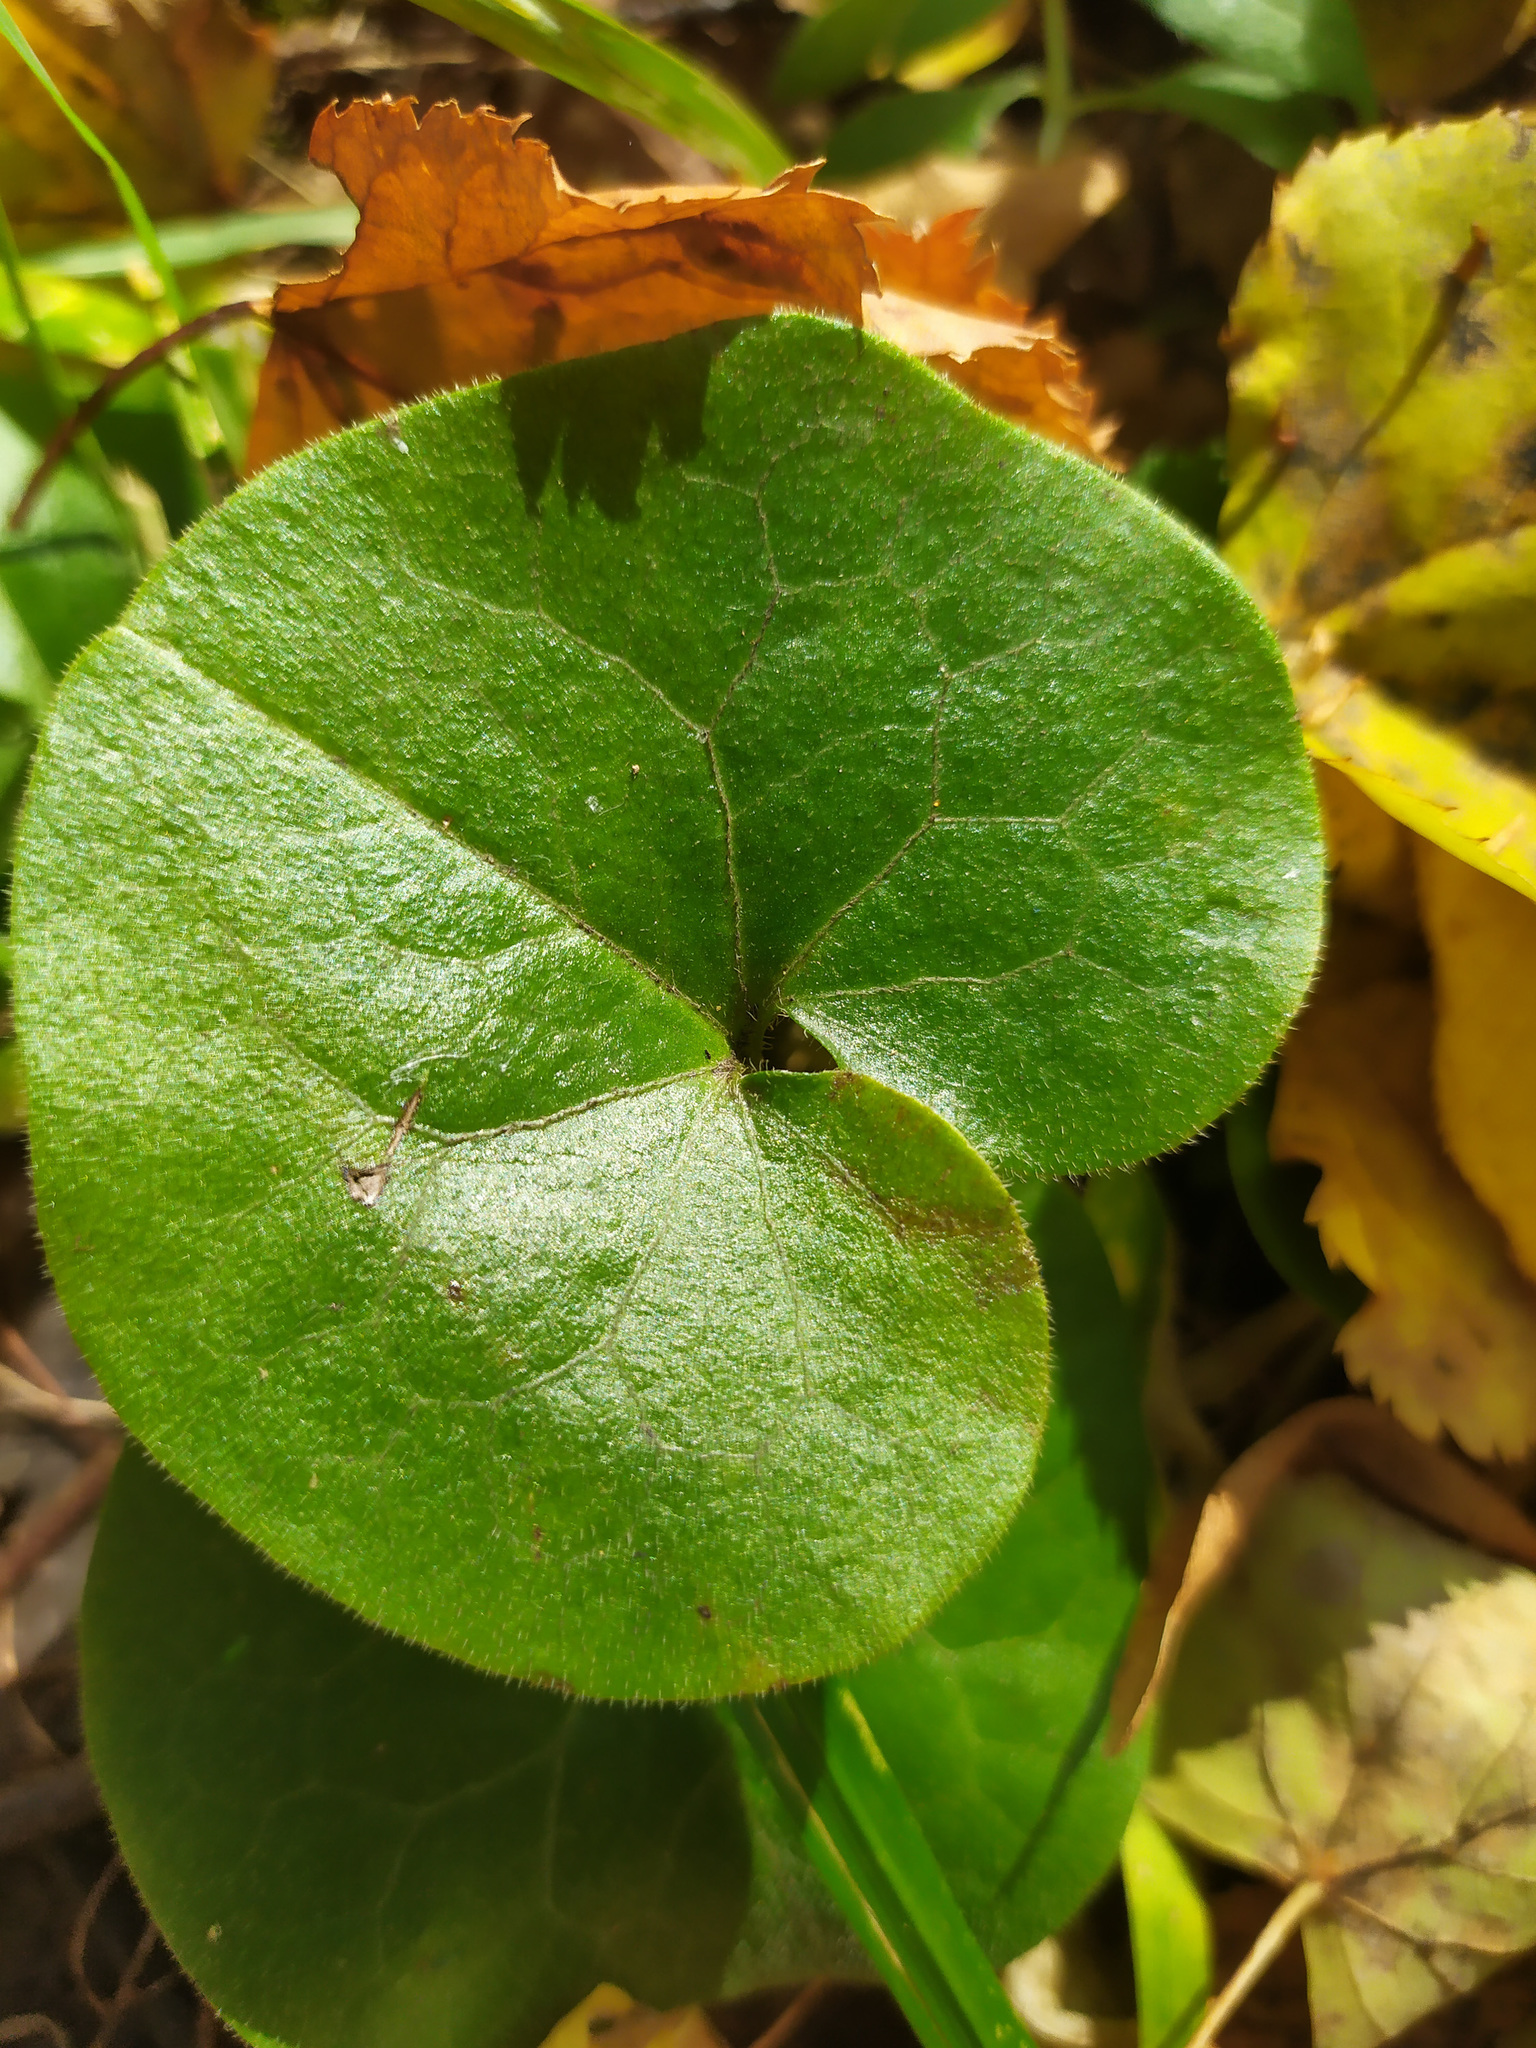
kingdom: Plantae
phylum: Tracheophyta
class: Magnoliopsida
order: Piperales
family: Aristolochiaceae
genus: Asarum
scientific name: Asarum europaeum
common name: Asarabacca
